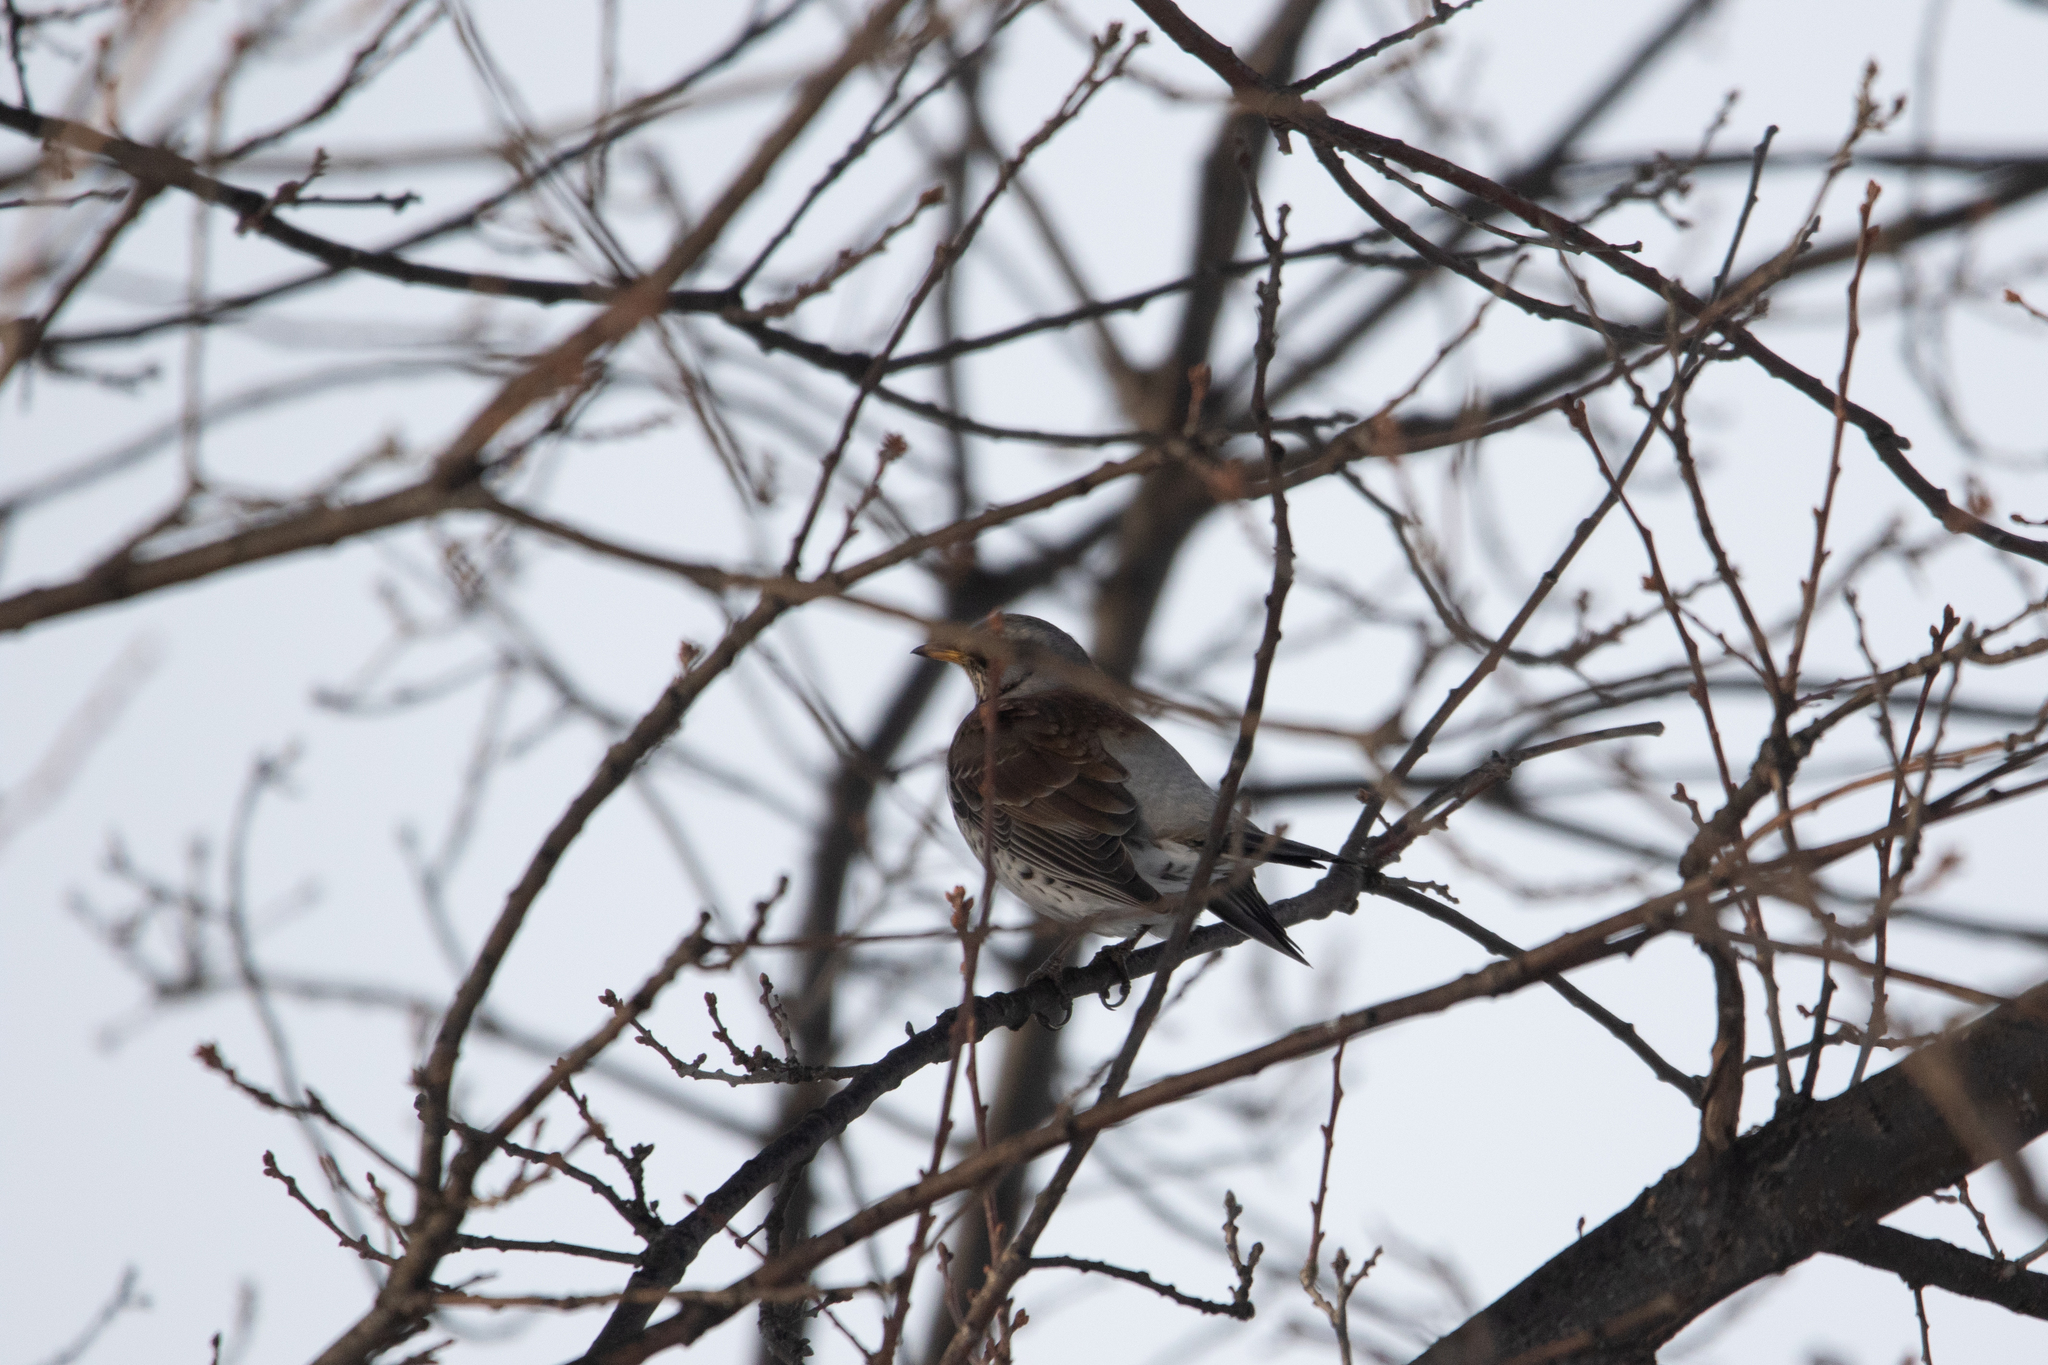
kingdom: Animalia
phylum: Chordata
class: Aves
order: Passeriformes
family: Turdidae
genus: Turdus
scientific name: Turdus pilaris
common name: Fieldfare
